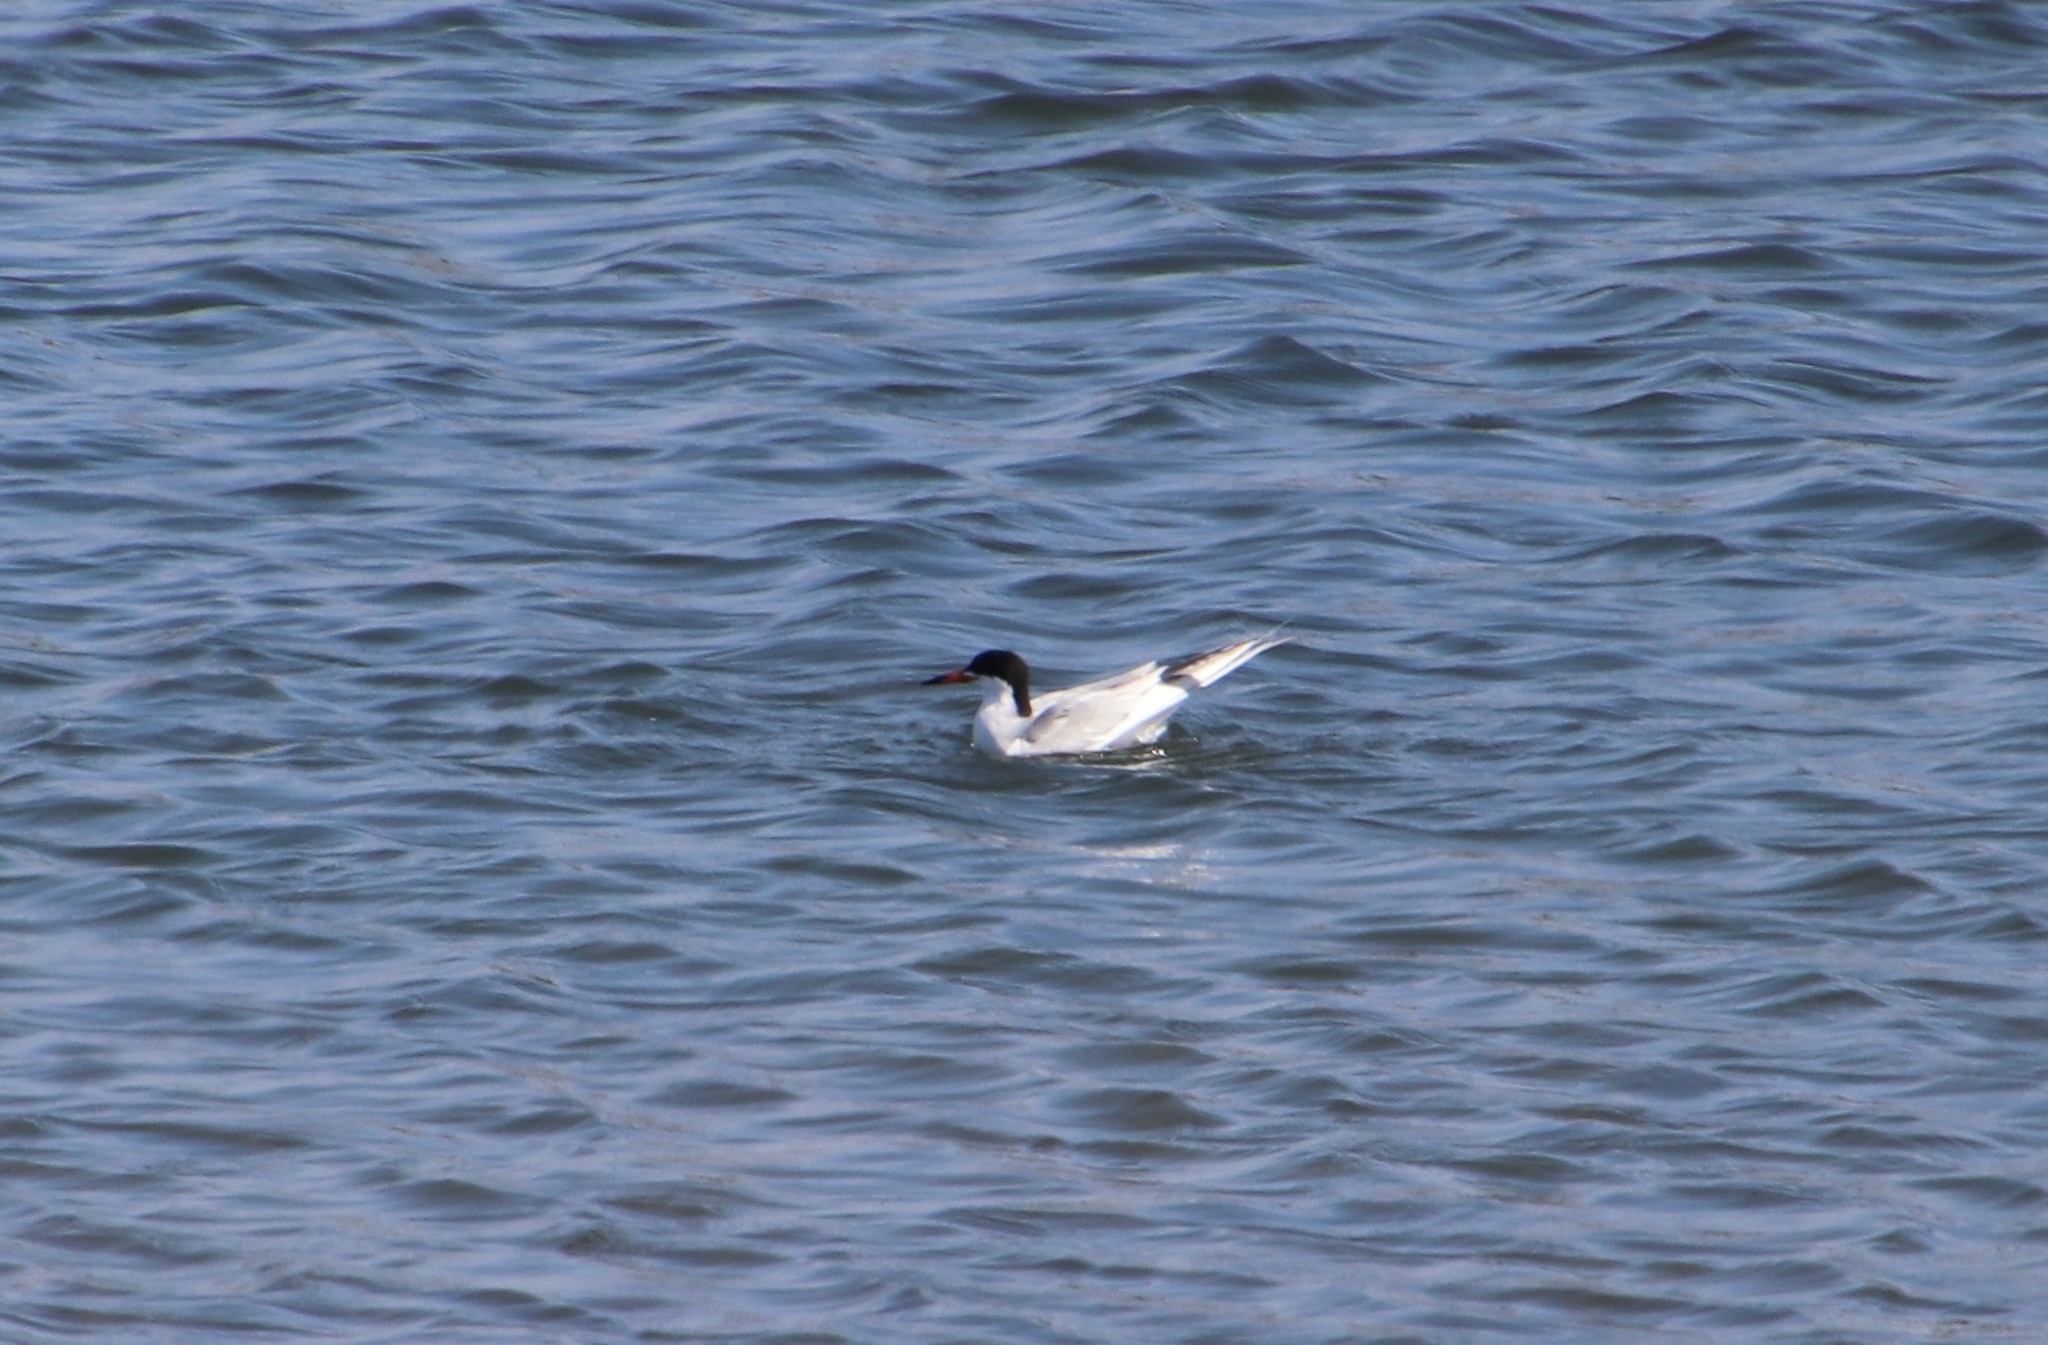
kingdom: Animalia
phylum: Chordata
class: Aves
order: Charadriiformes
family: Laridae
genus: Sterna
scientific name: Sterna forsteri
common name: Forster's tern
